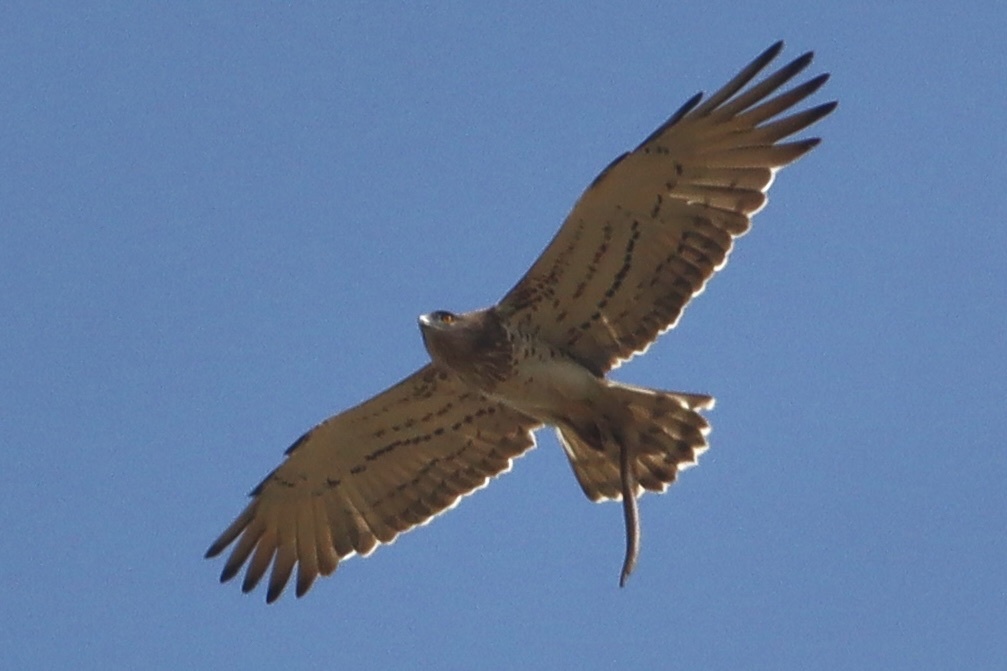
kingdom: Animalia
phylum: Chordata
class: Squamata
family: Anguidae
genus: Pseudopus
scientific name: Pseudopus apodus
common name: European glass lizard
